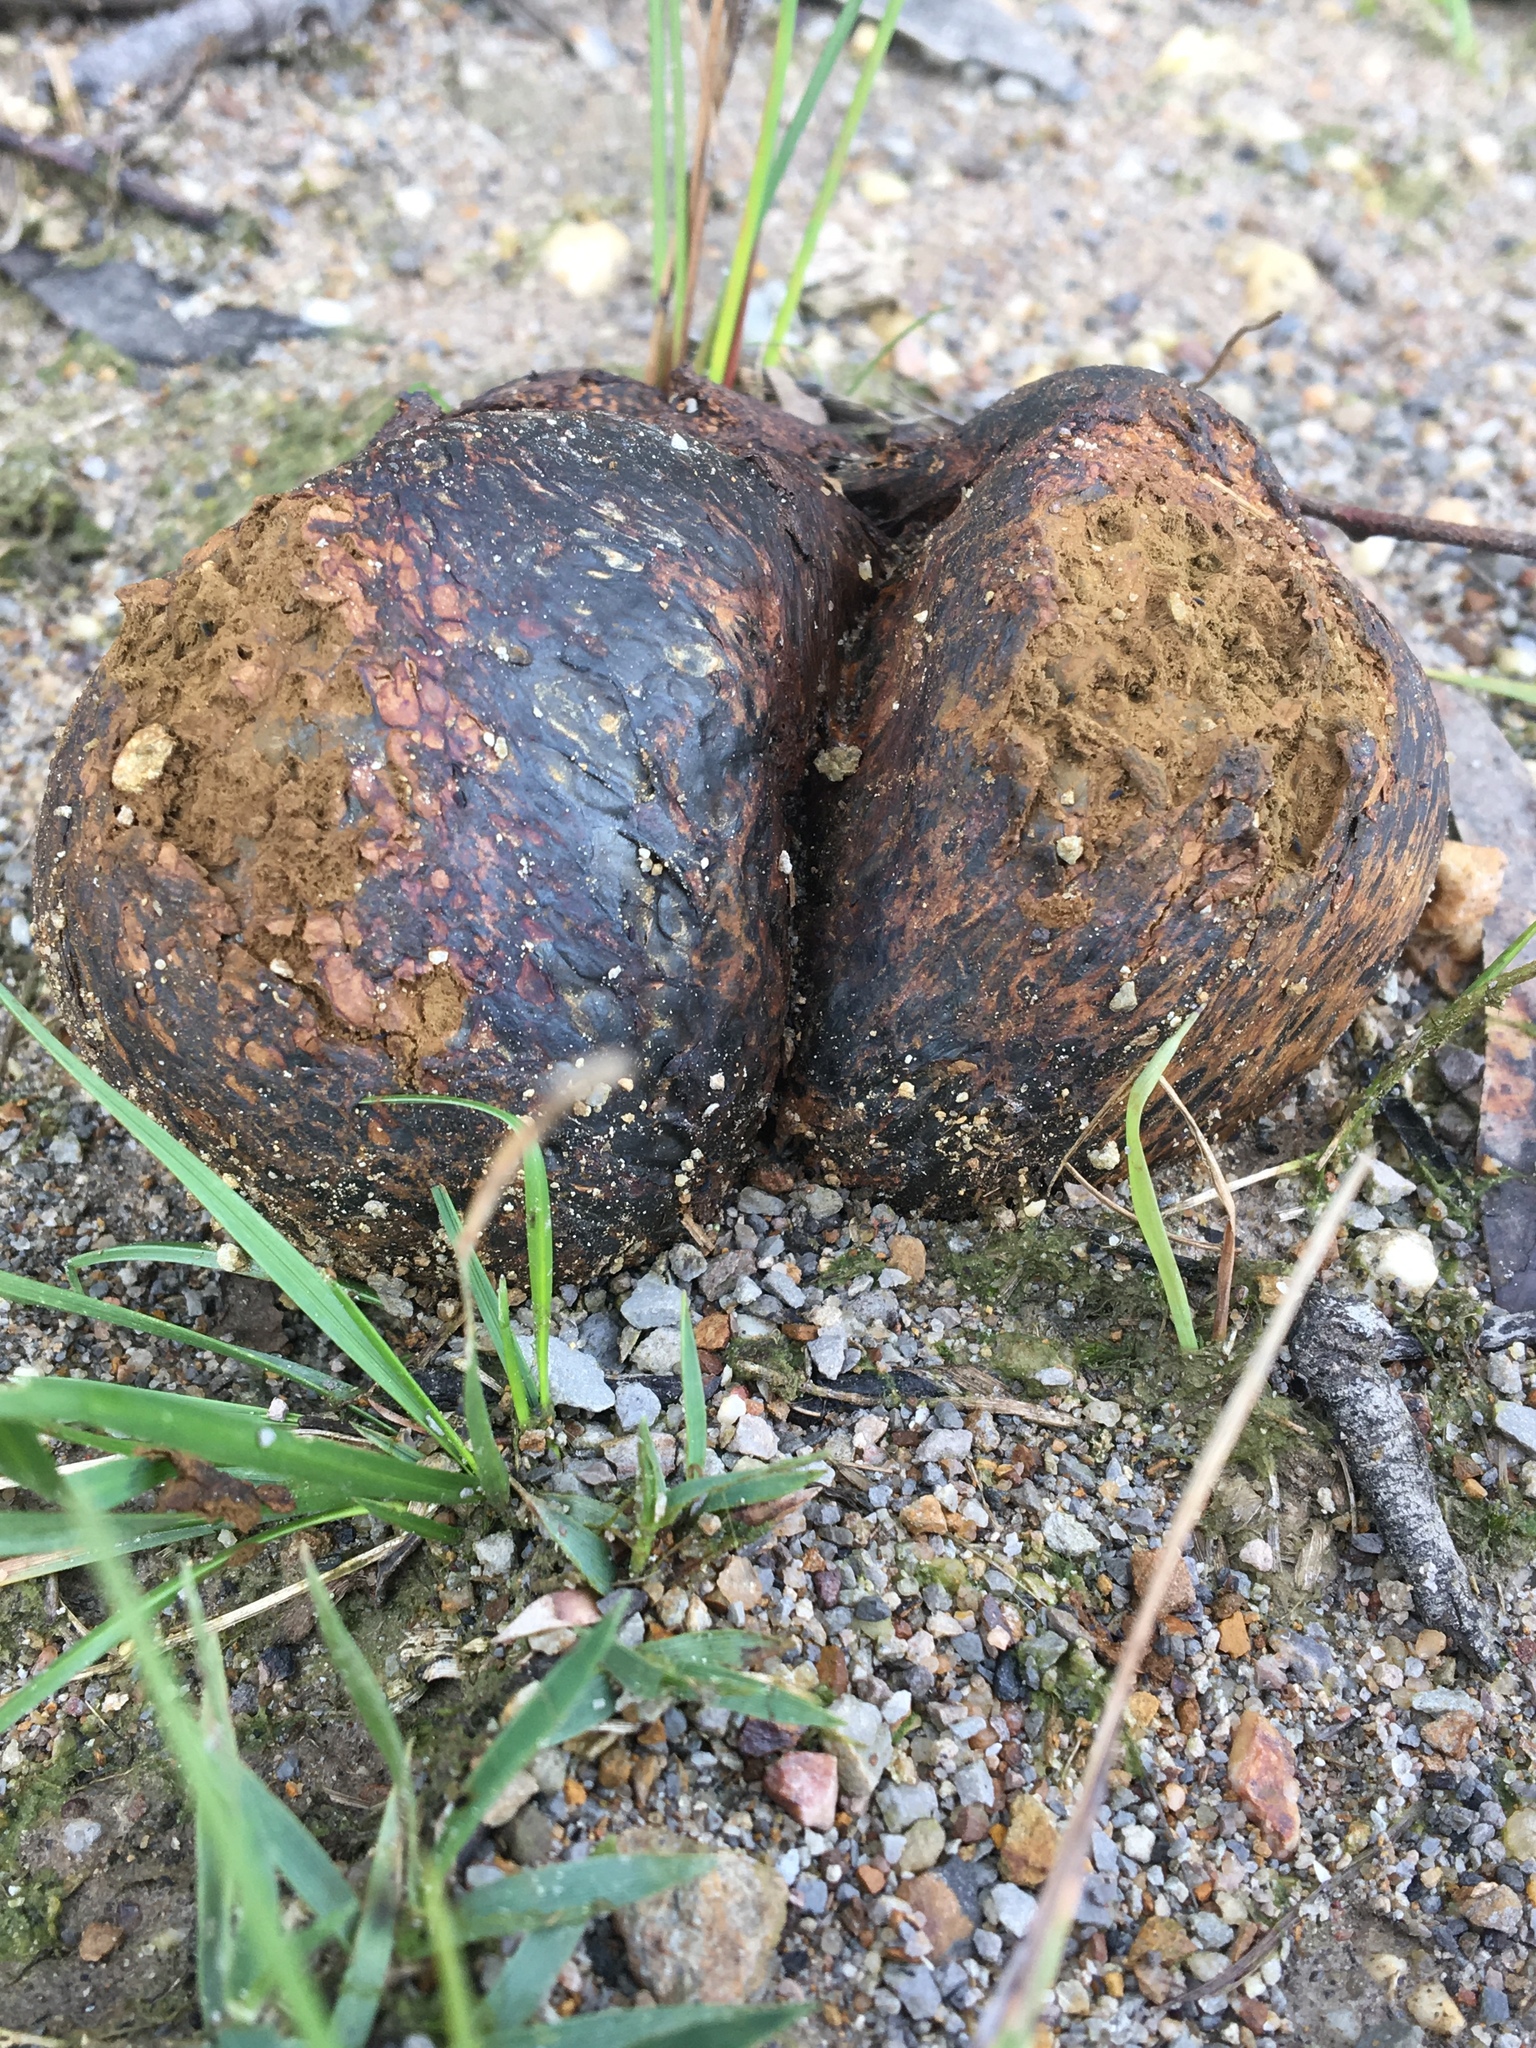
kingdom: Fungi
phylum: Basidiomycota
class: Agaricomycetes
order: Boletales
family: Sclerodermataceae
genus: Pisolithus
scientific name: Pisolithus arhizus
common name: Dyeball
